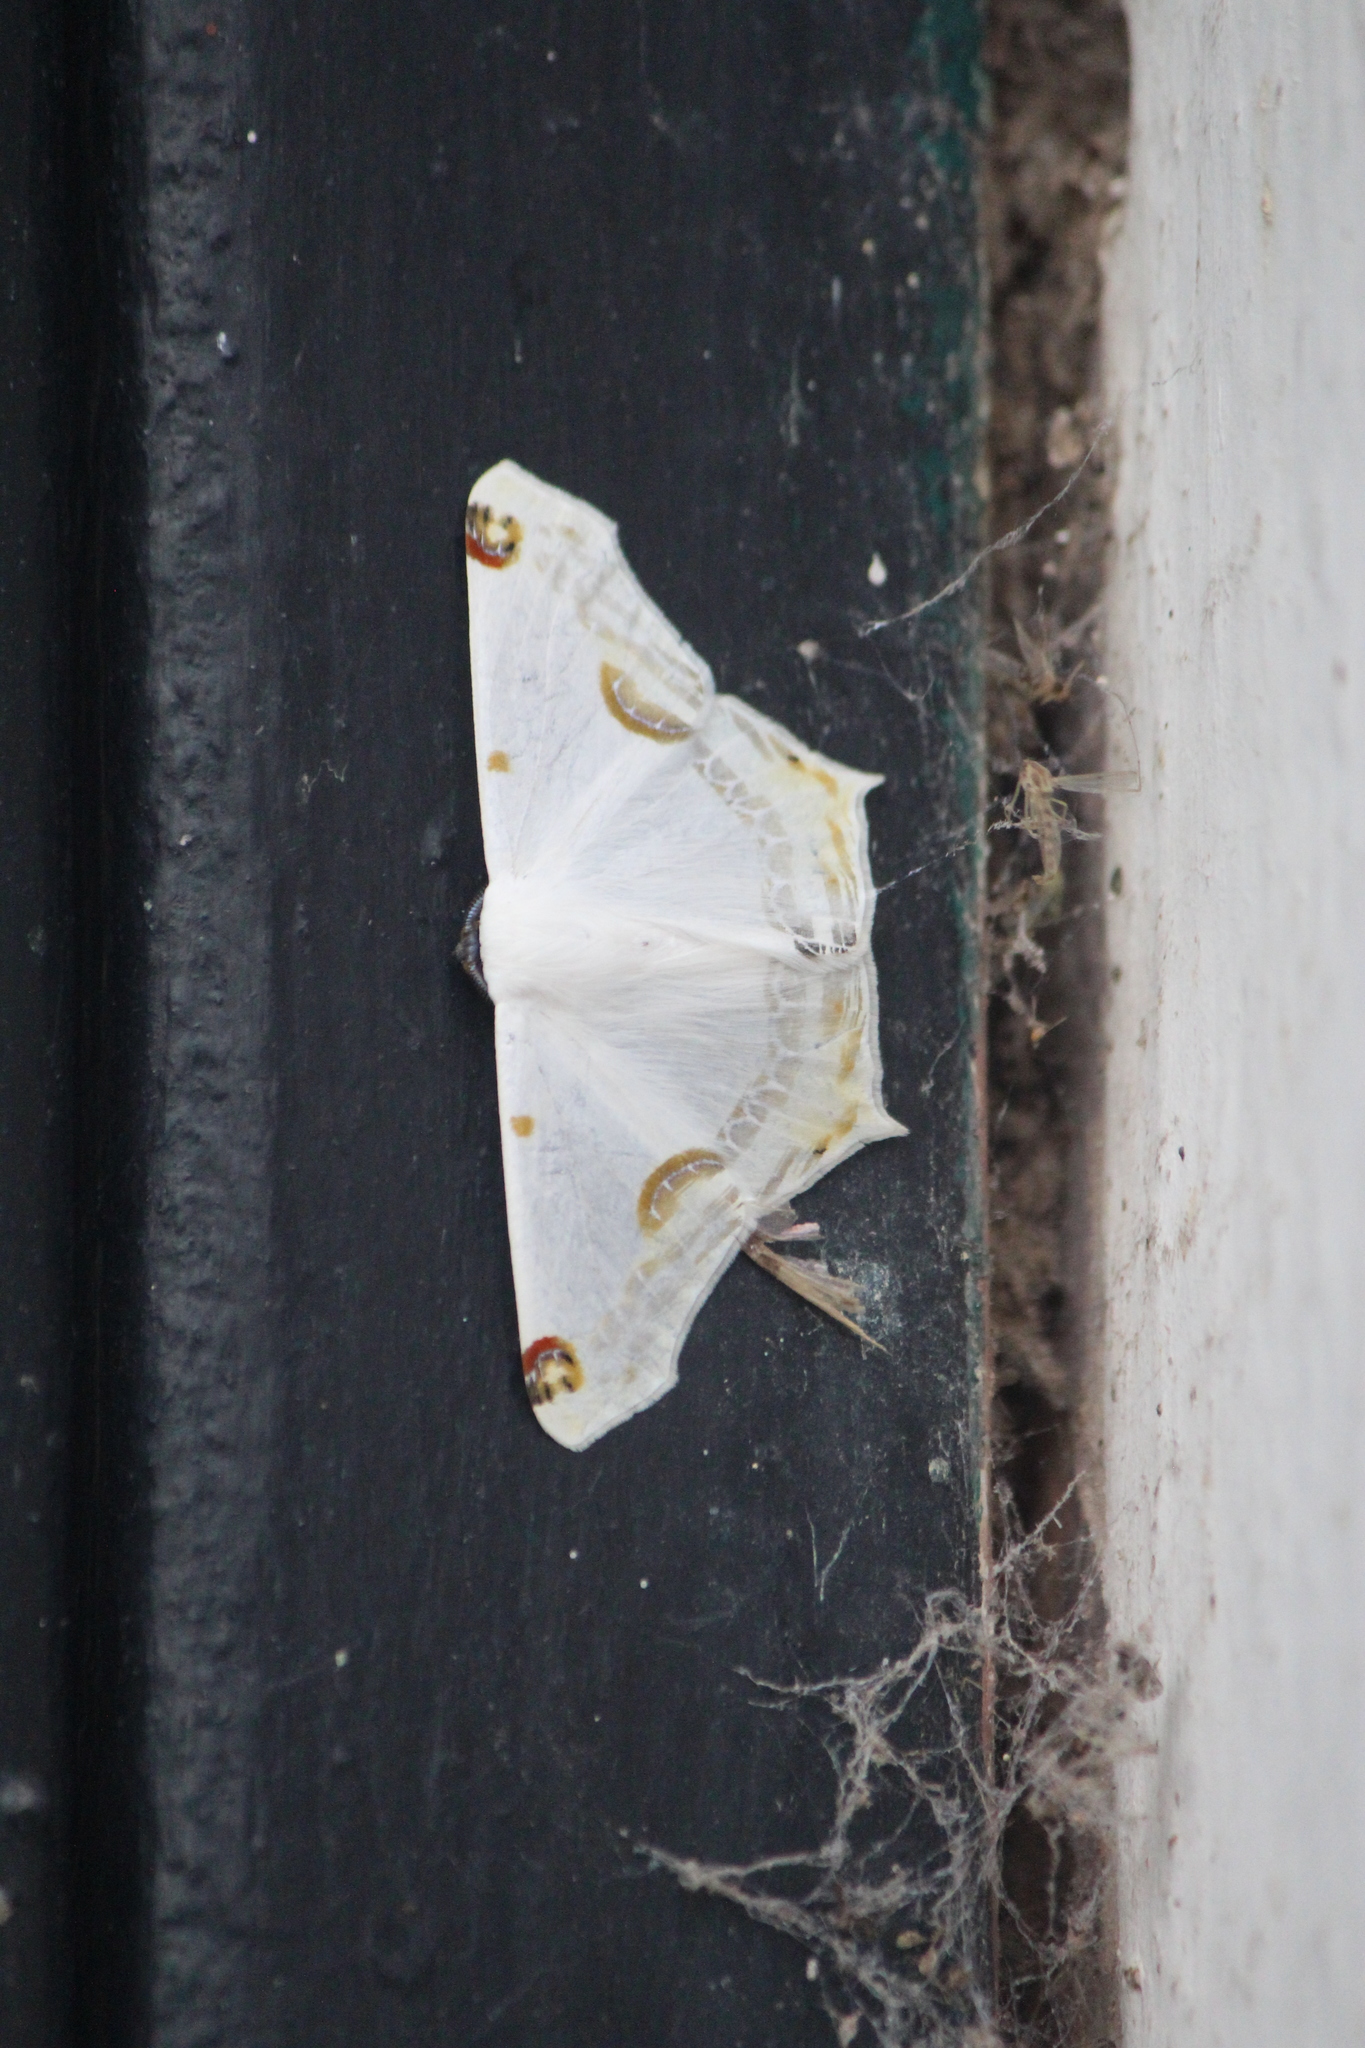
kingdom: Animalia
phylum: Arthropoda
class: Insecta
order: Lepidoptera
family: Geometridae
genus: Sericoptera
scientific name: Sericoptera mahometaria
